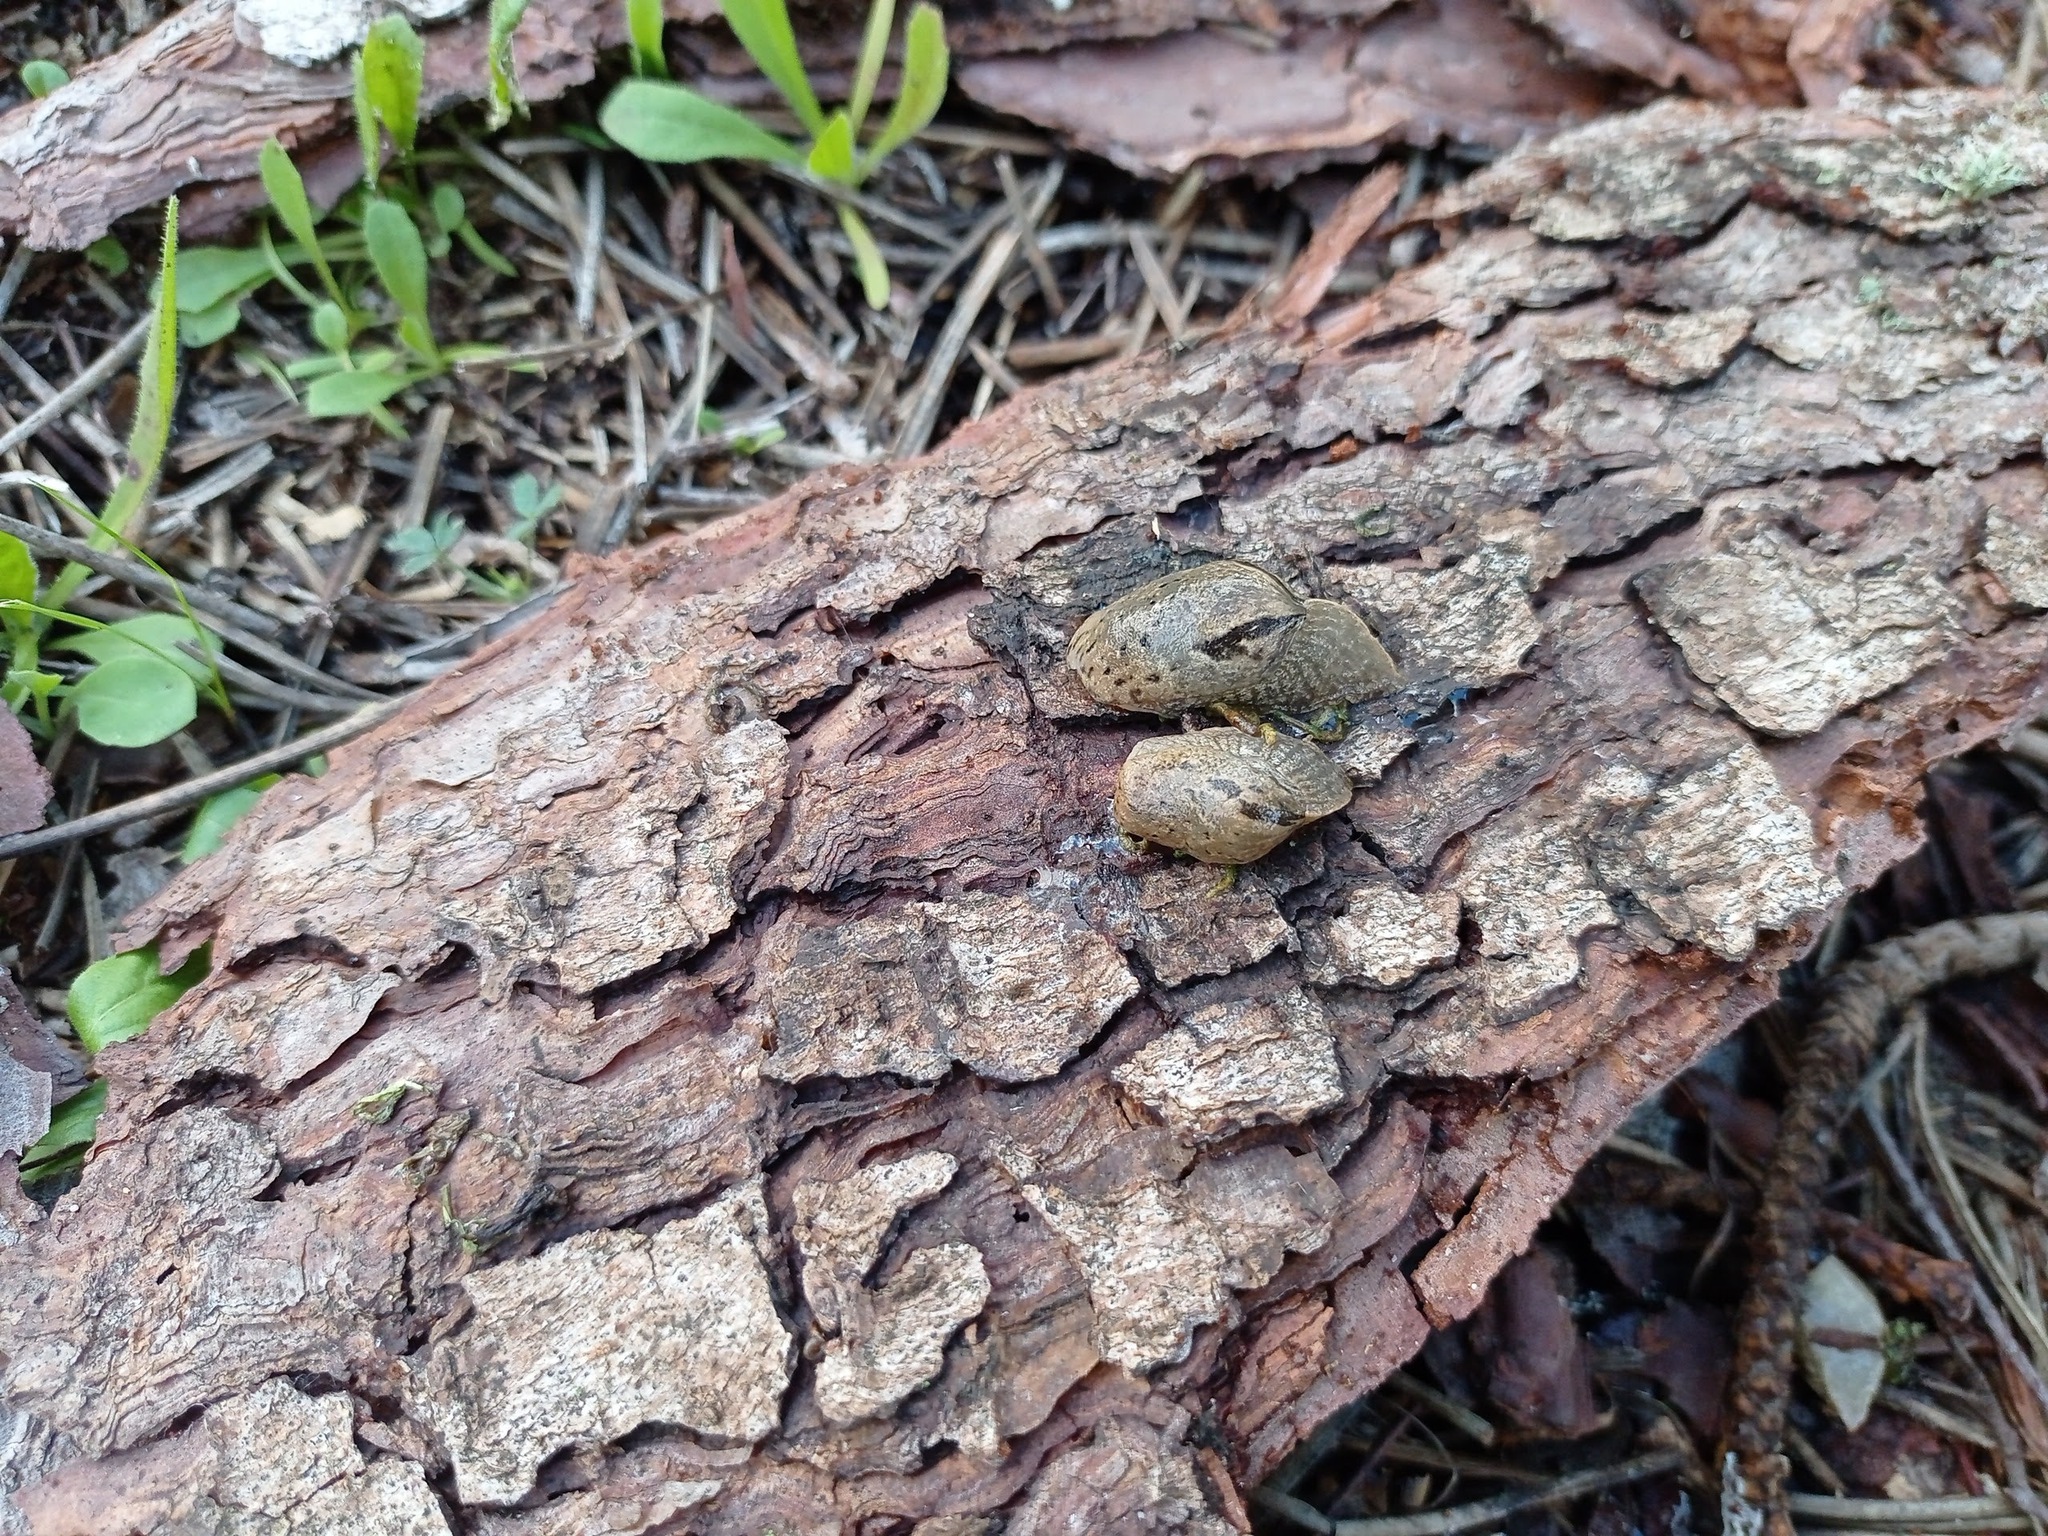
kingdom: Animalia
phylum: Mollusca
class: Gastropoda
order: Stylommatophora
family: Parmacellidae
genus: Drusia
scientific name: Drusia valenciennii
